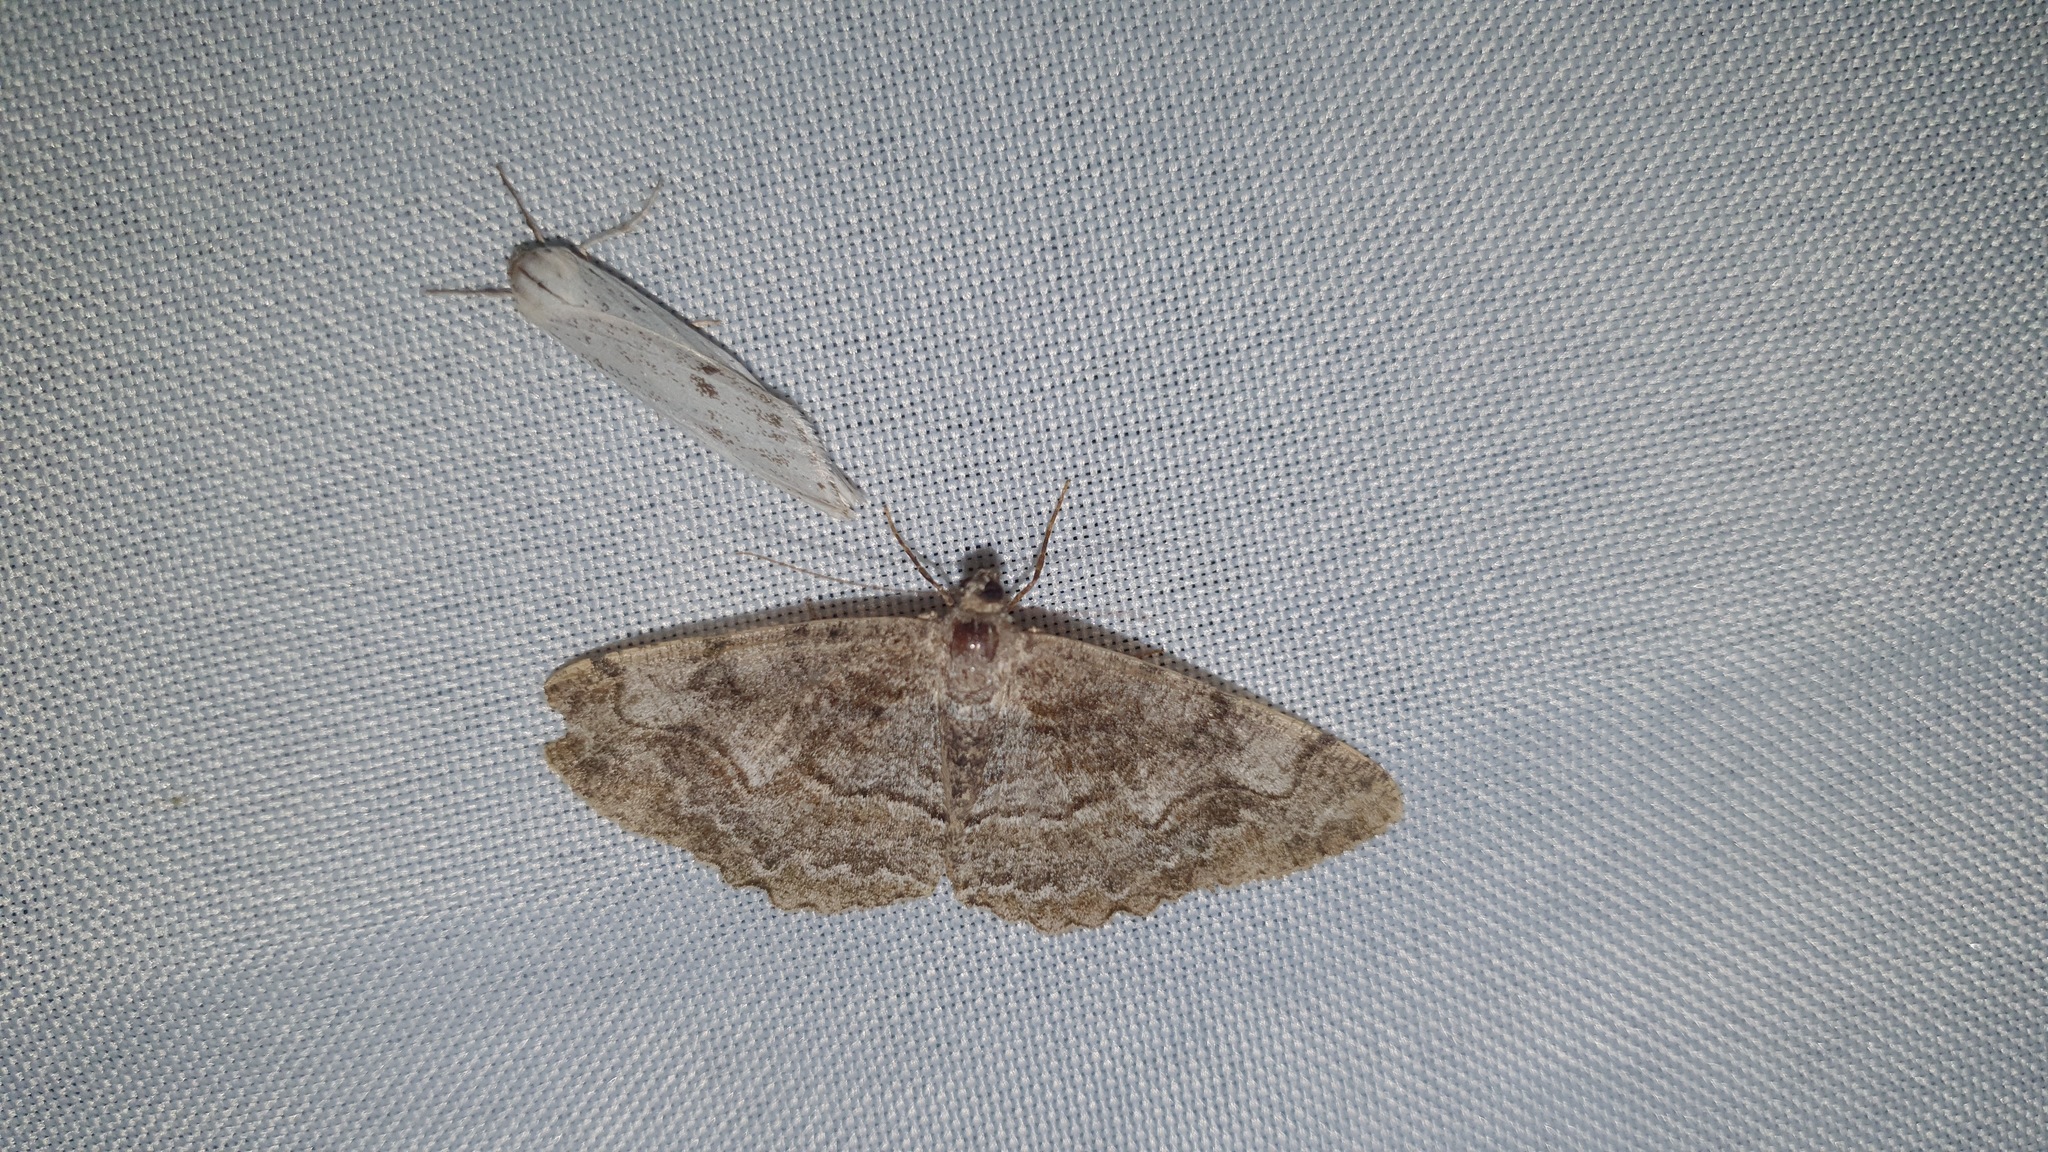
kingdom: Animalia
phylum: Arthropoda
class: Insecta
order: Lepidoptera
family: Geometridae
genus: Alcis
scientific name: Alcis repandata
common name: Mottled beauty
